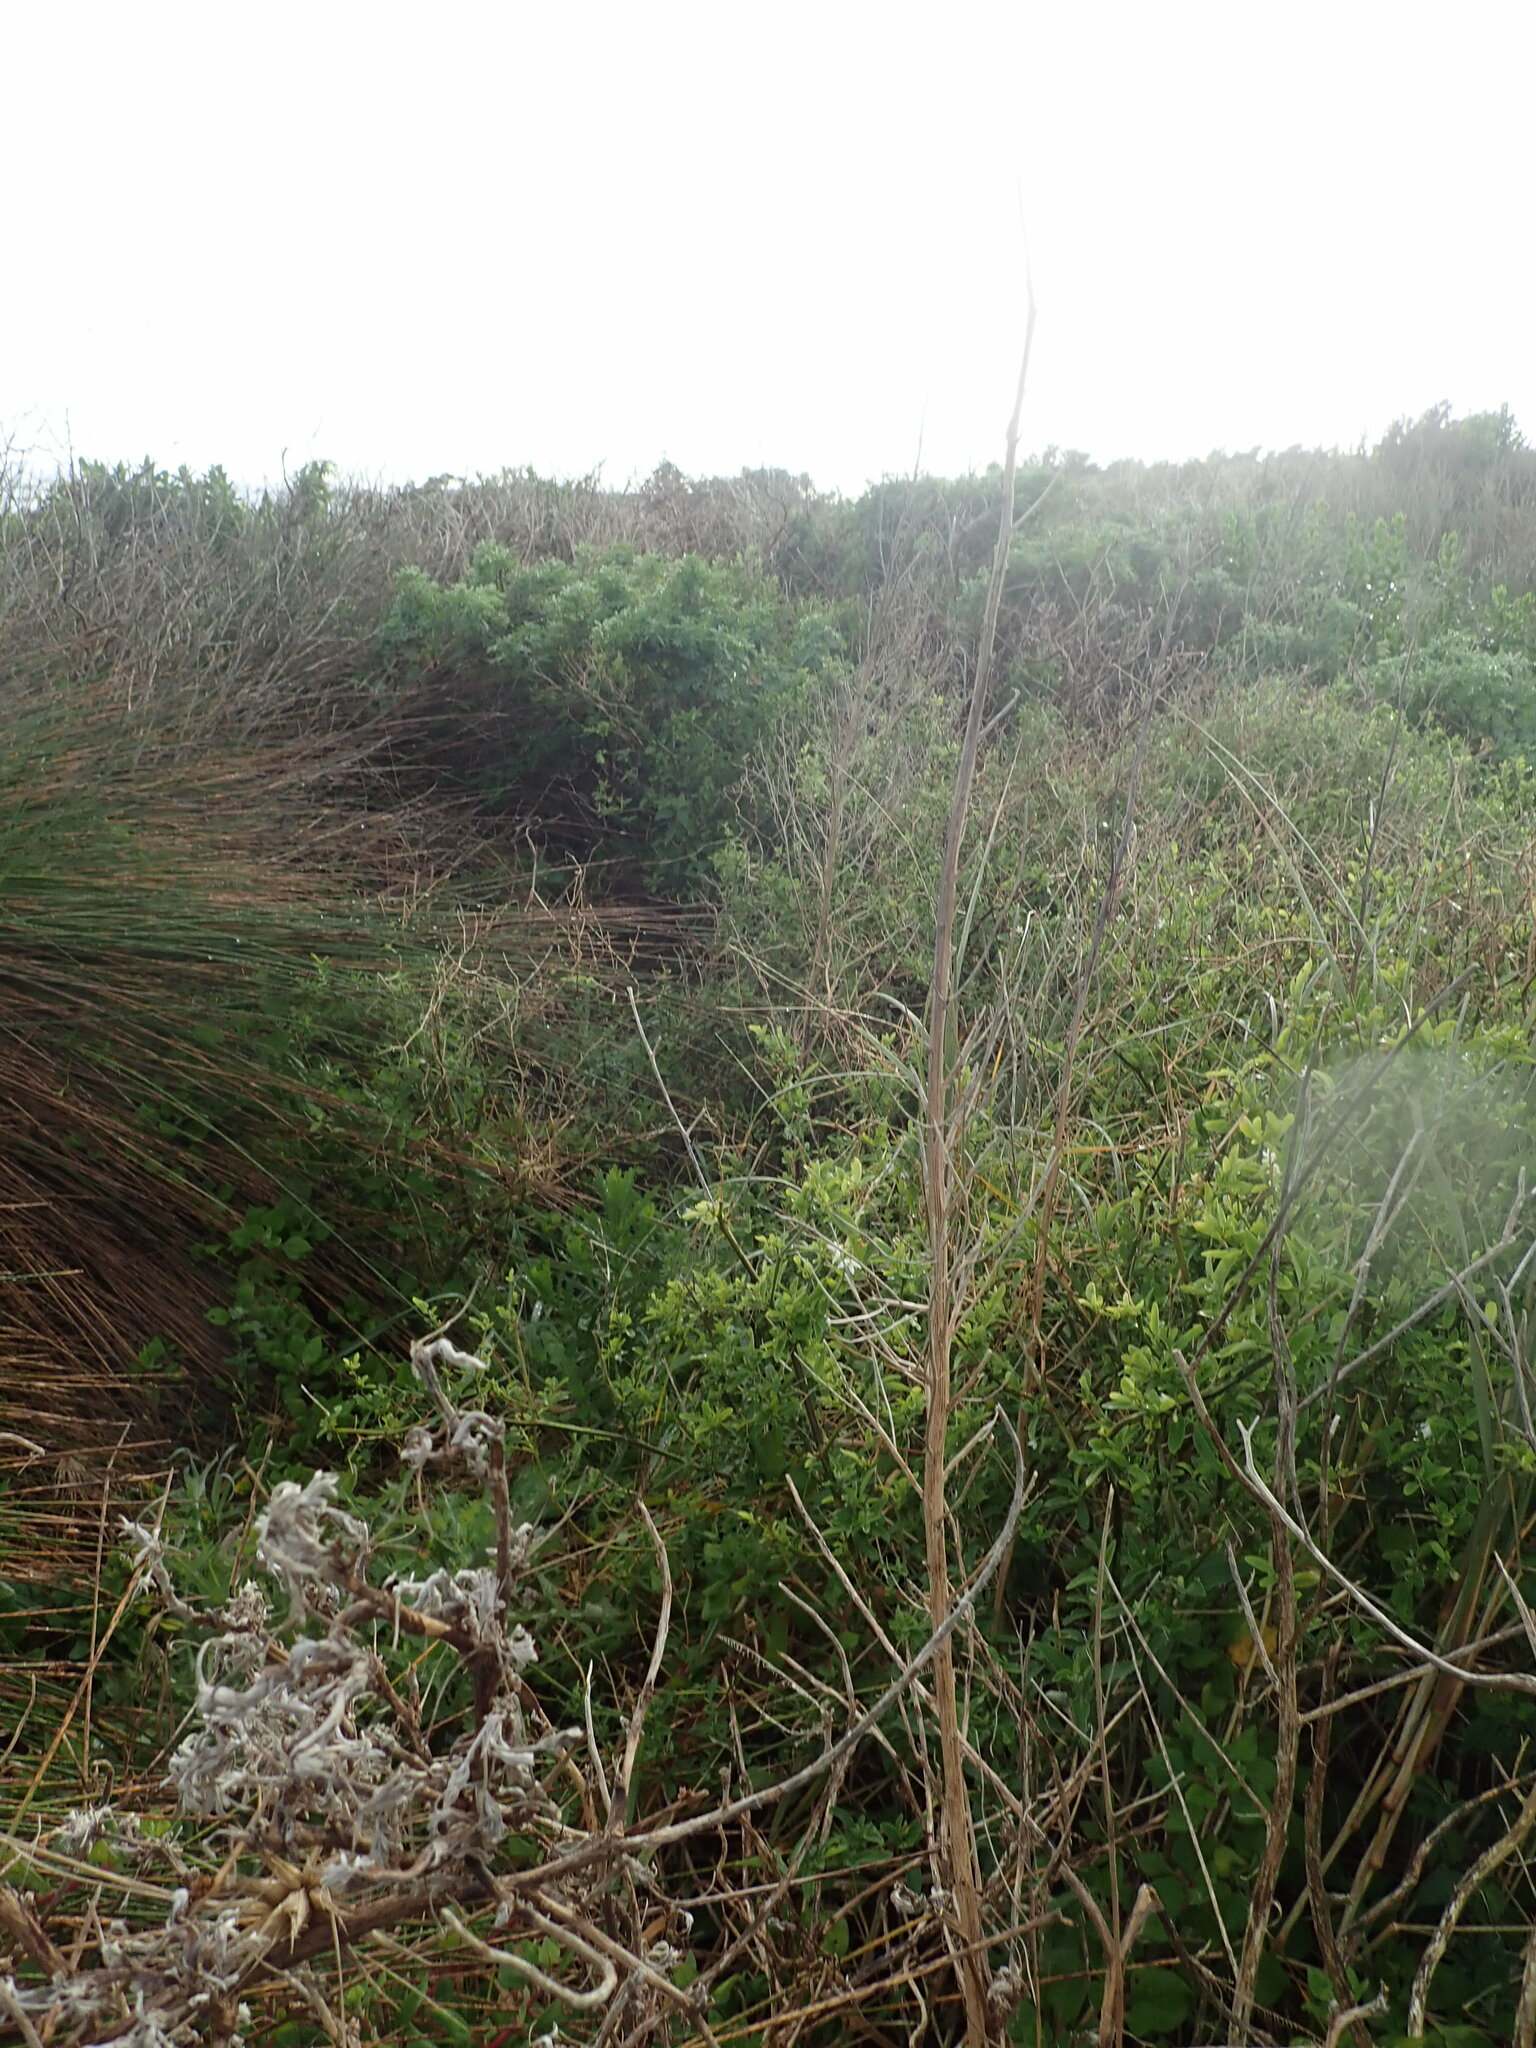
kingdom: Plantae
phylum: Tracheophyta
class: Magnoliopsida
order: Solanales
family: Solanaceae
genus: Solanum
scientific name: Solanum chenopodioides
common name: Tall nightshade
